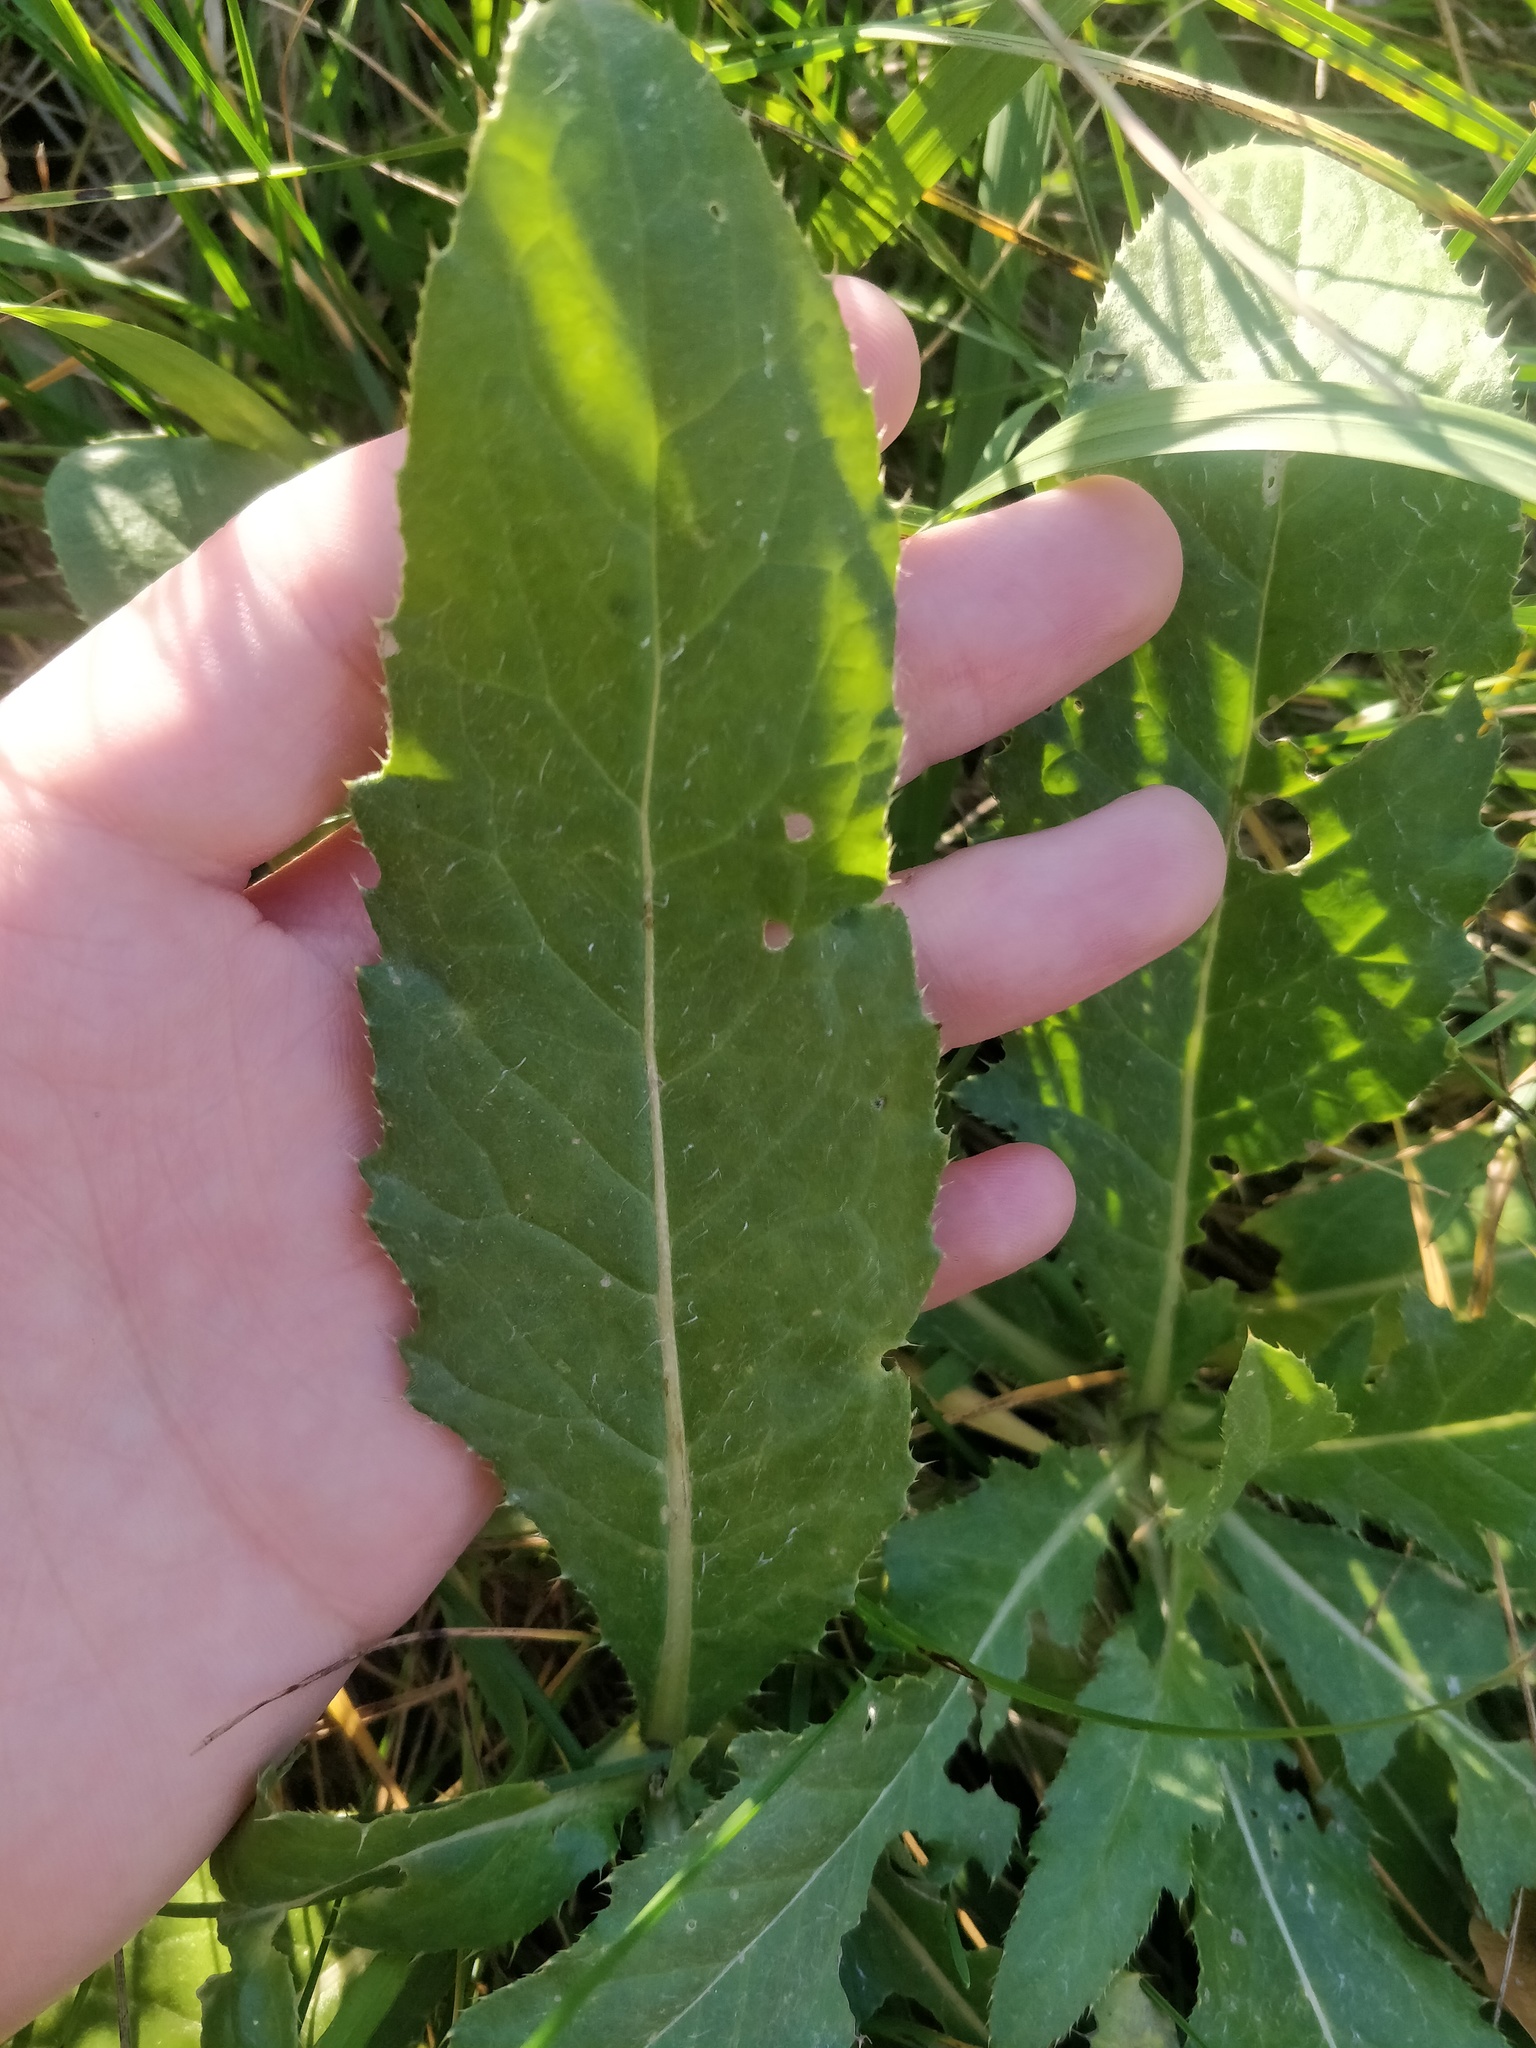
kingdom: Plantae
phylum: Tracheophyta
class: Magnoliopsida
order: Asterales
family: Asteraceae
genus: Cirsium
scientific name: Cirsium arvense
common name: Creeping thistle
